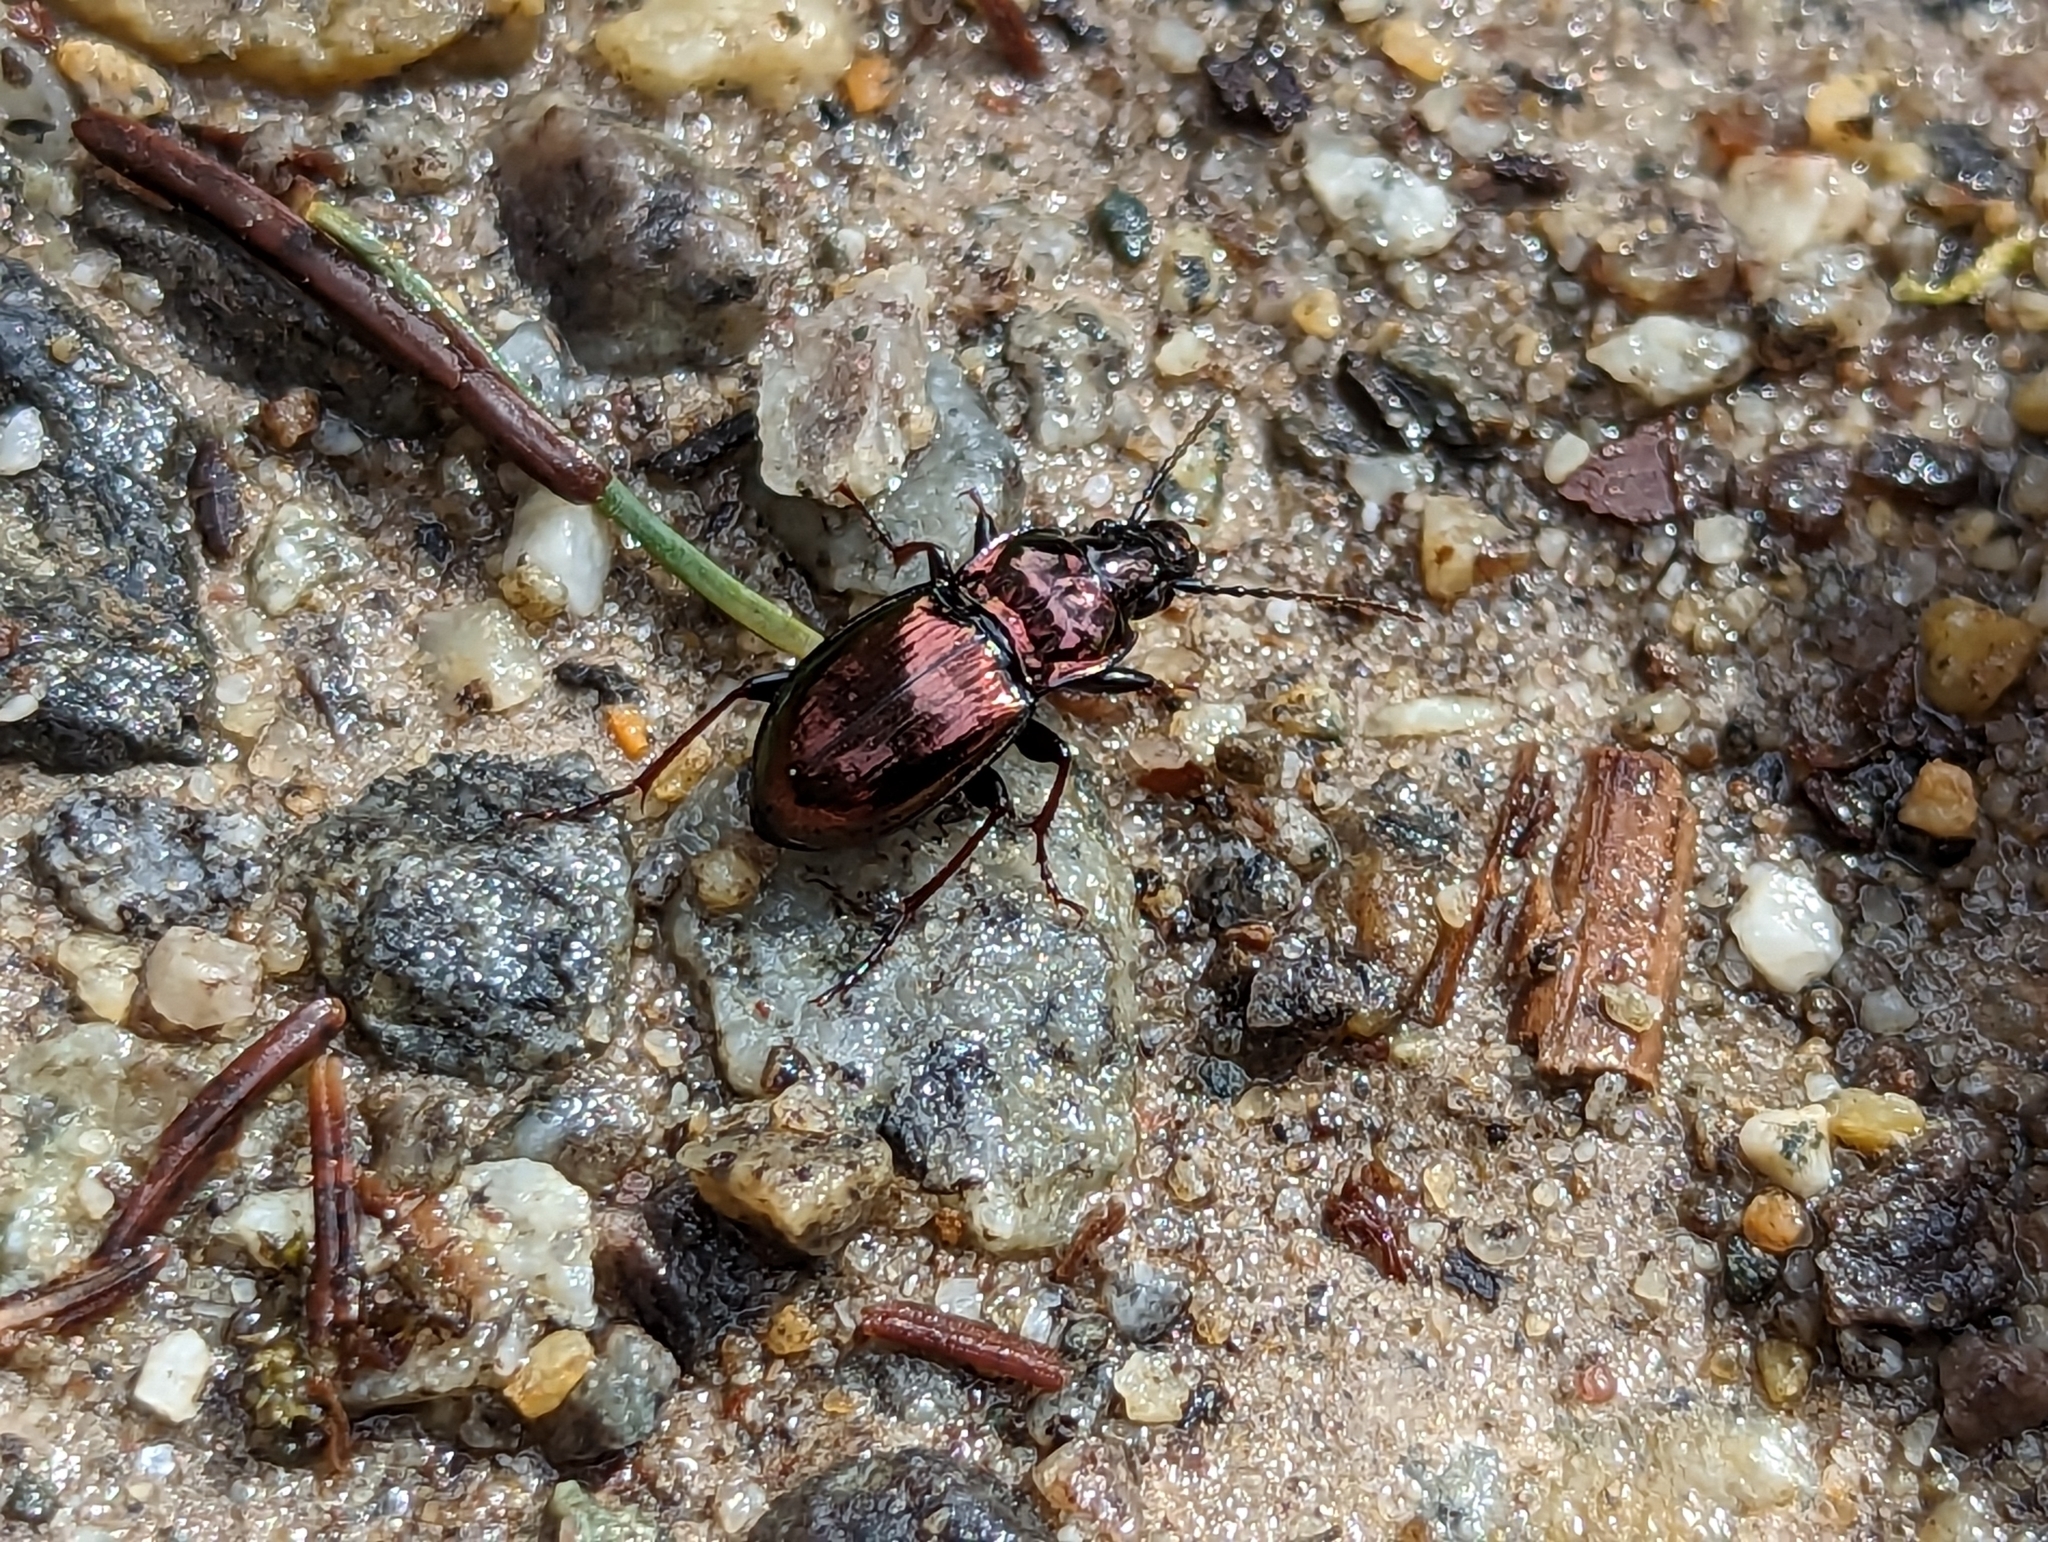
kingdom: Animalia
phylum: Arthropoda
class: Insecta
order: Coleoptera
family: Carabidae
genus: Pterostichus
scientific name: Pterostichus burmeisteri
